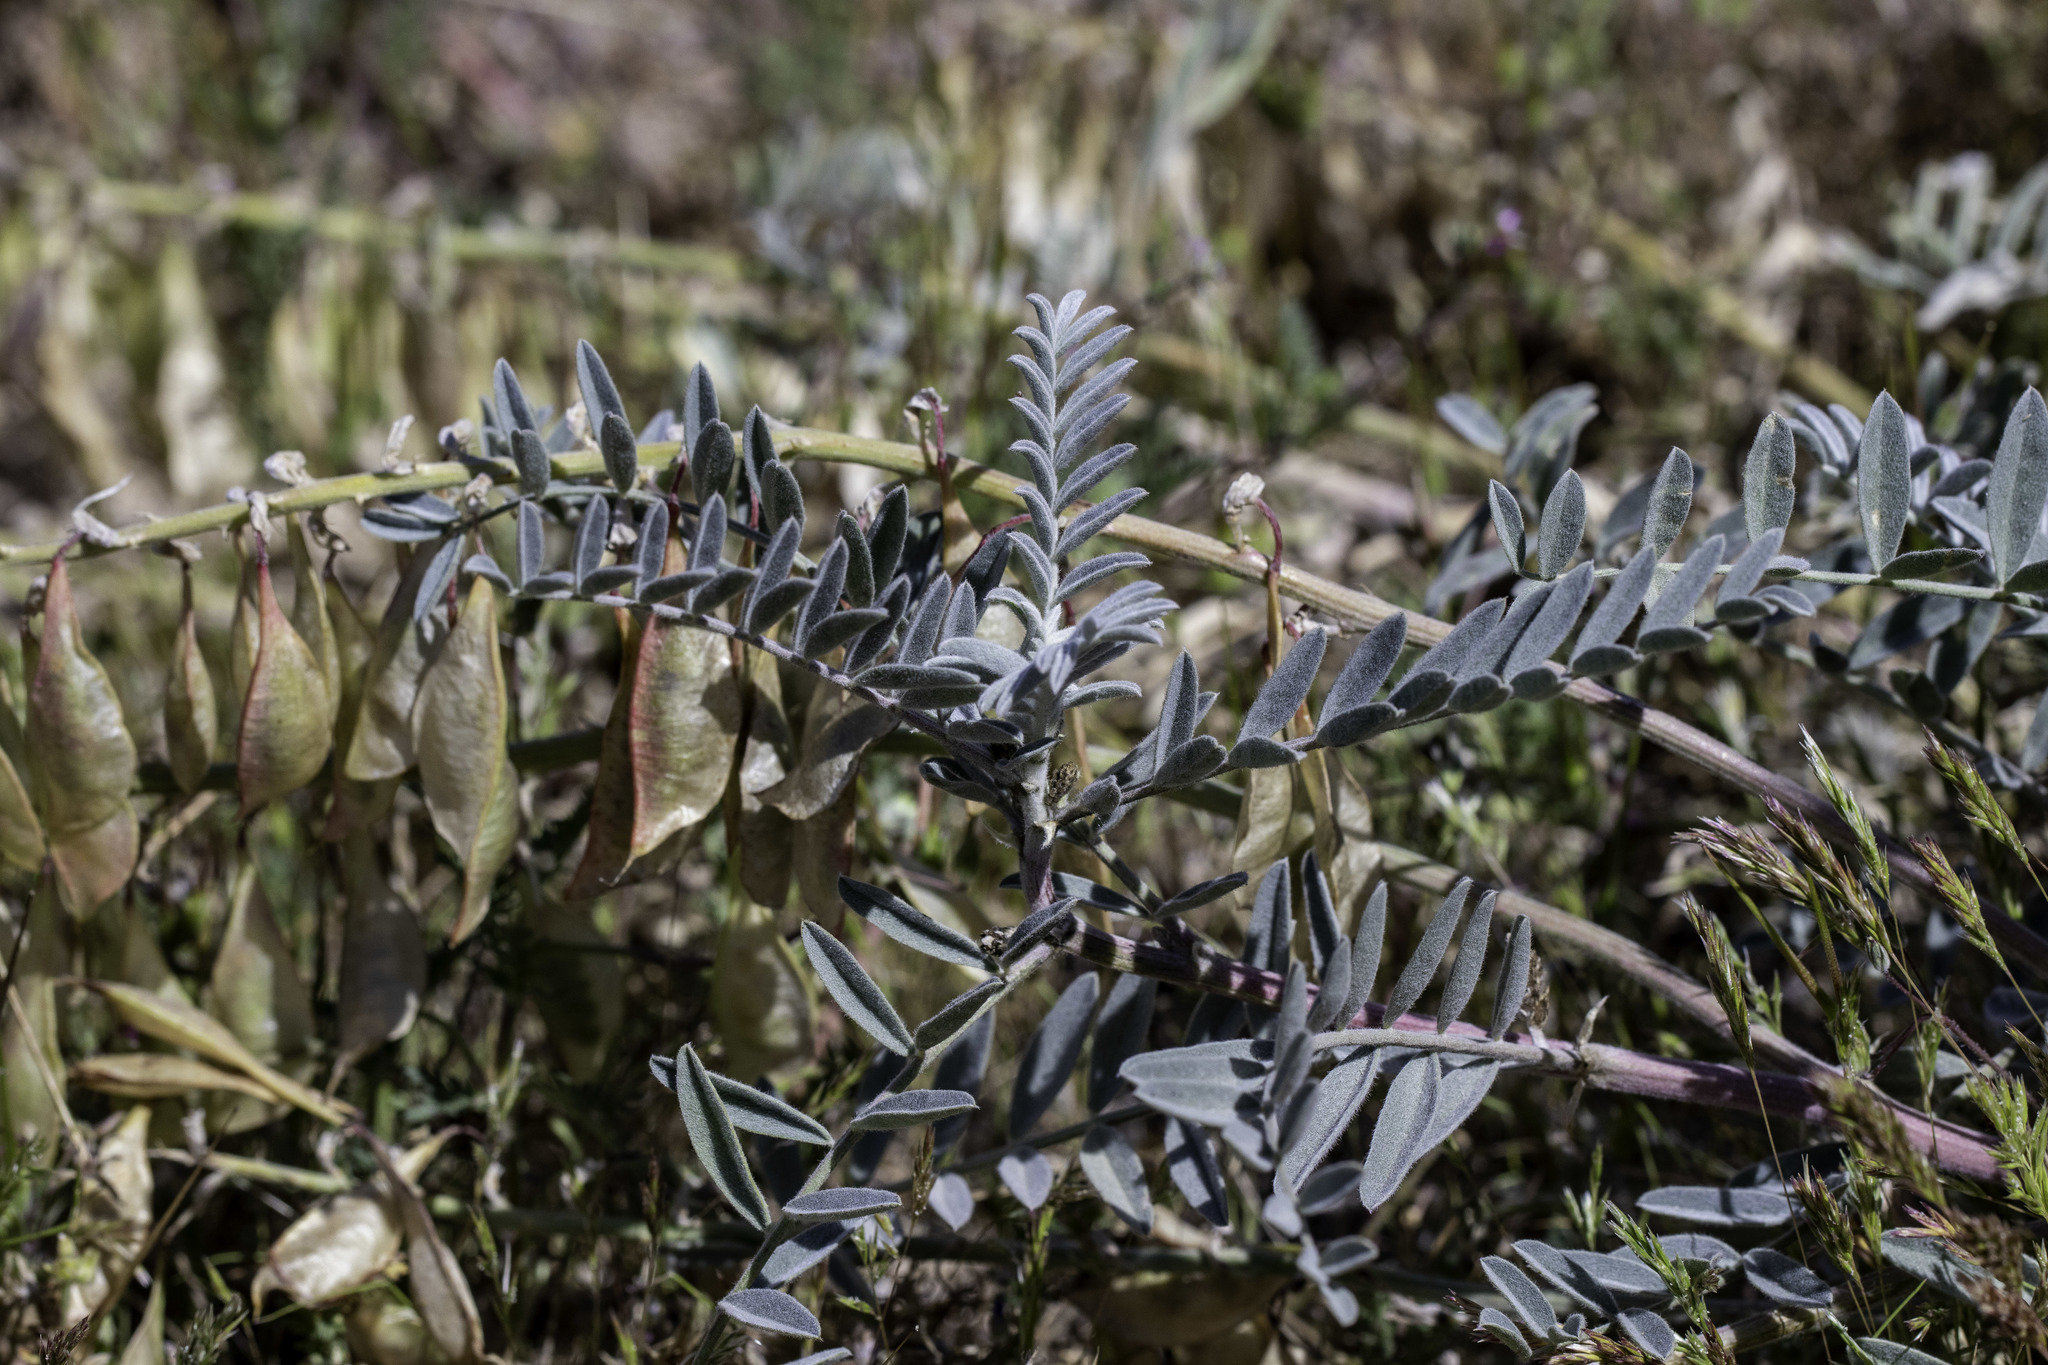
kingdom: Plantae
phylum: Tracheophyta
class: Magnoliopsida
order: Fabales
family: Fabaceae
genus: Astragalus
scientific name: Astragalus oxyphysus
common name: Stanislaus milk-vetch
